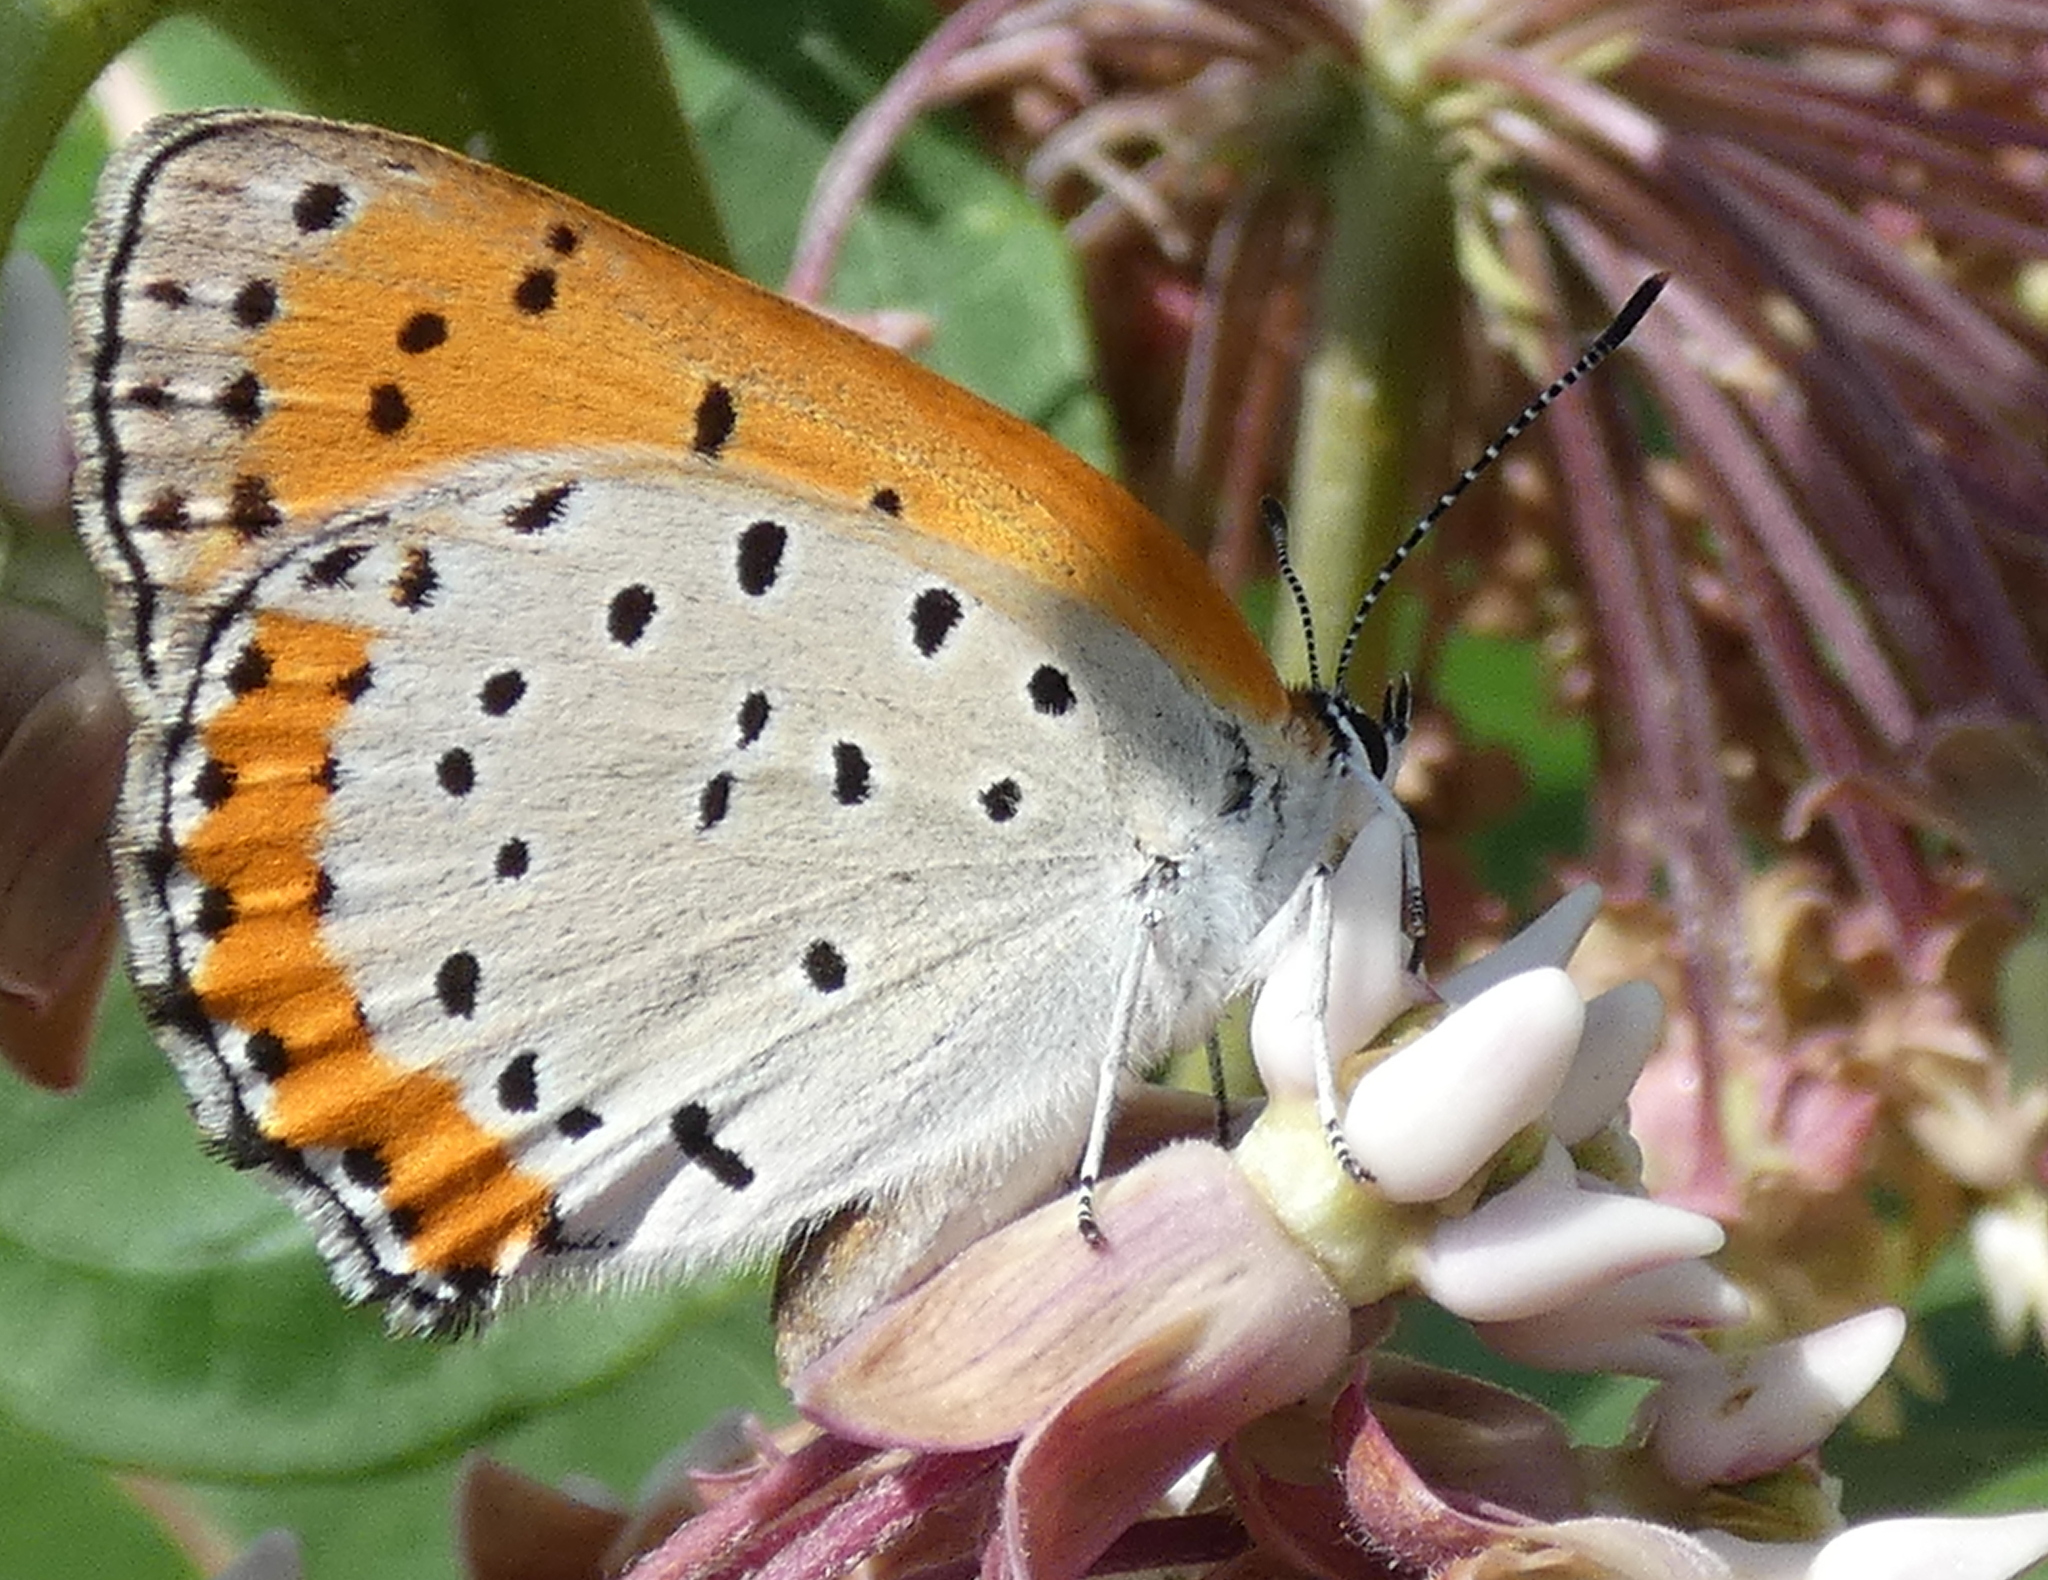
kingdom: Animalia
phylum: Arthropoda
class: Insecta
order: Lepidoptera
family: Lycaenidae
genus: Tharsalea
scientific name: Tharsalea hyllus
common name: Bronze copper
